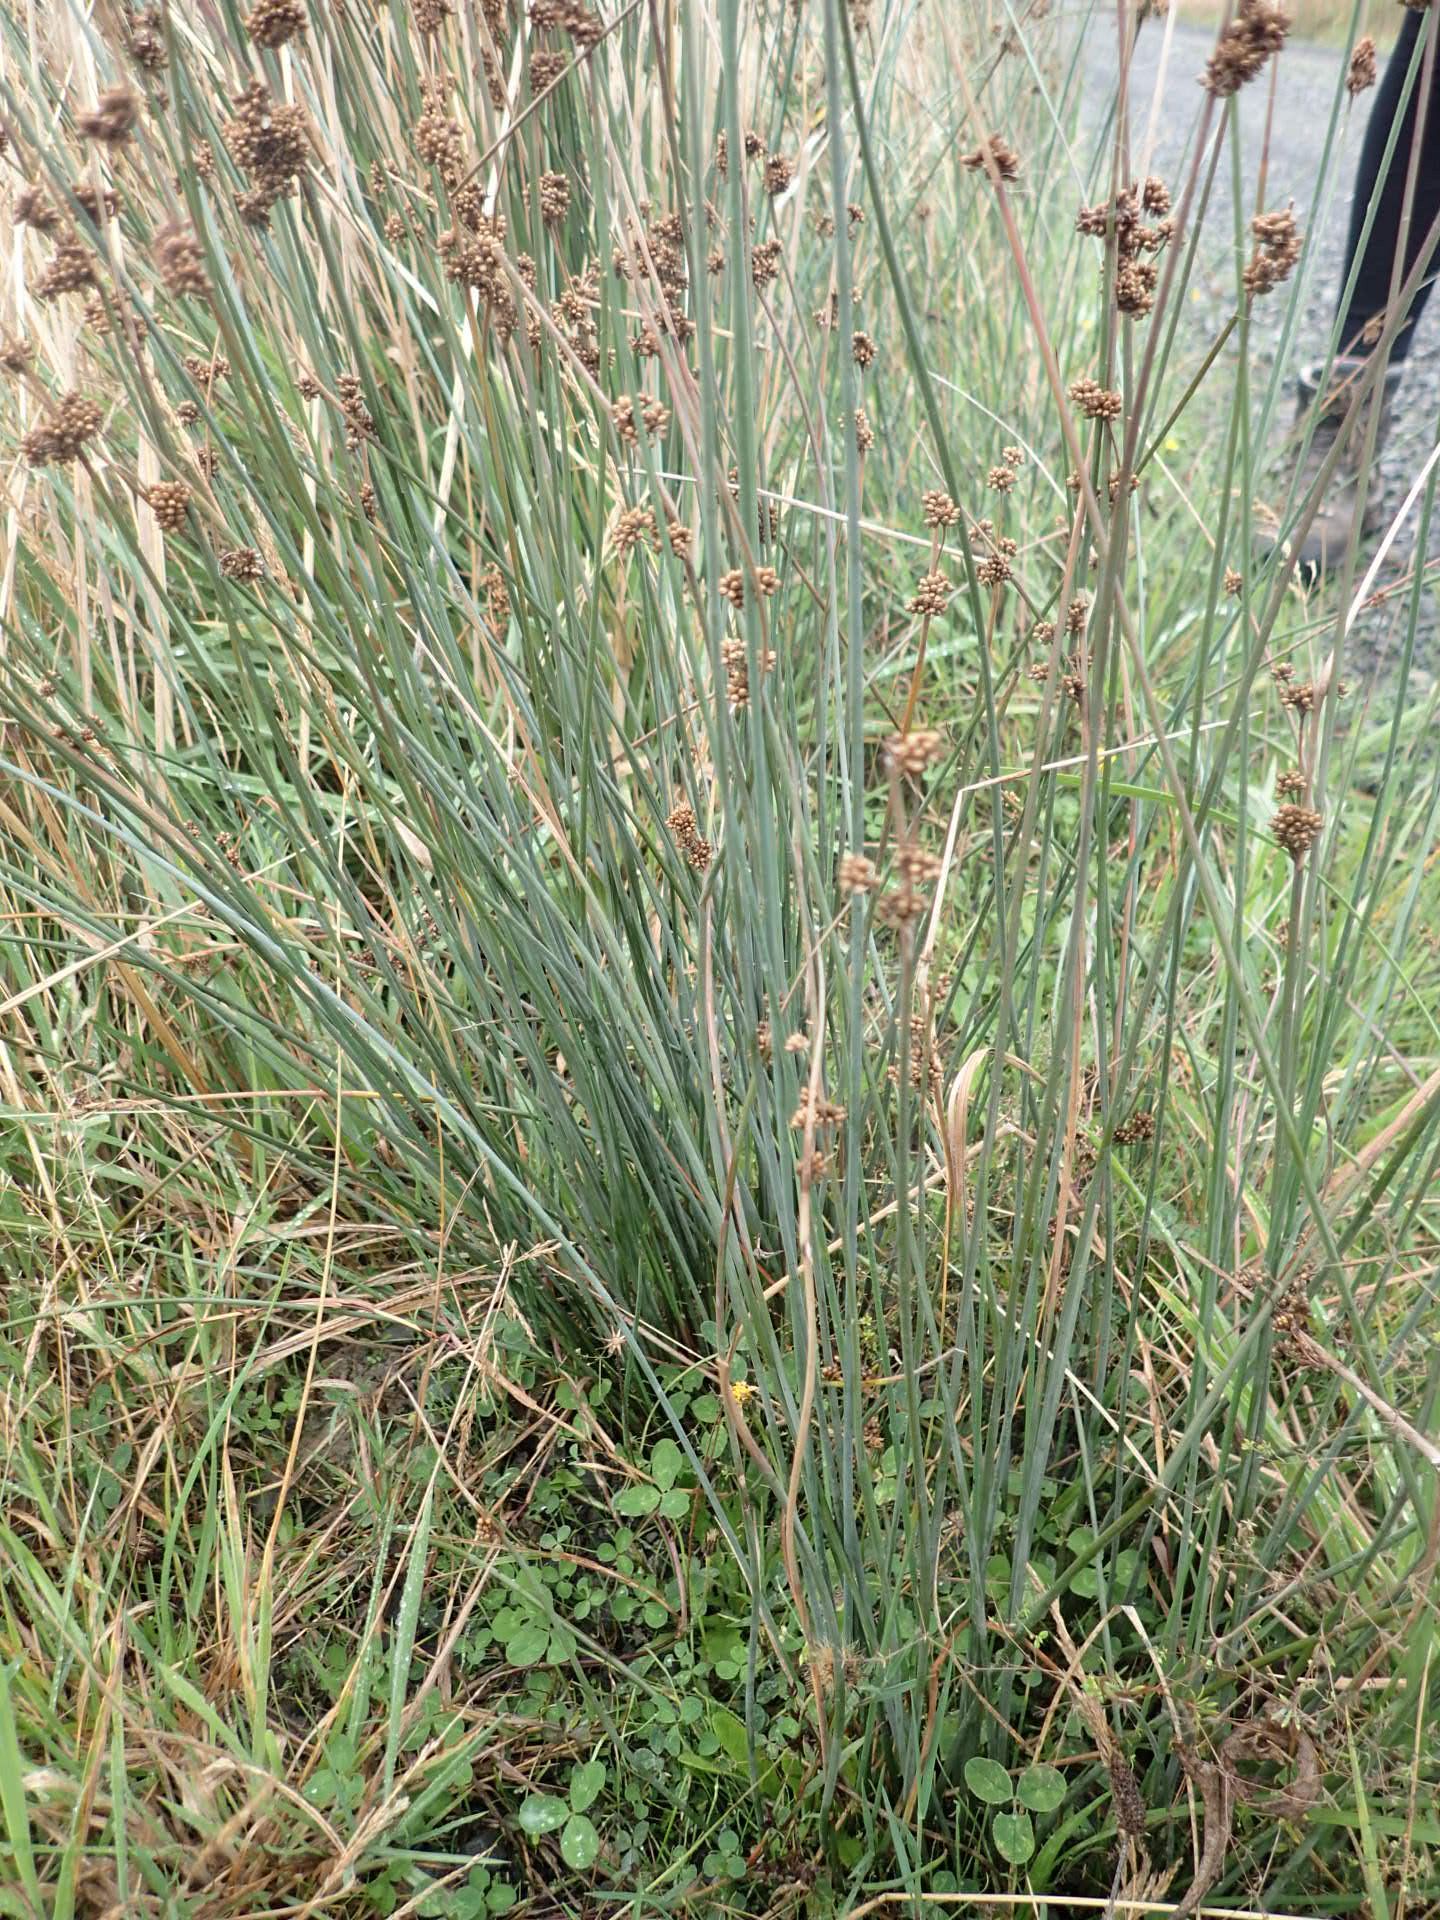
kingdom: Plantae
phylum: Tracheophyta
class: Liliopsida
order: Poales
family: Juncaceae
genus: Juncus
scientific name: Juncus sarophorus
